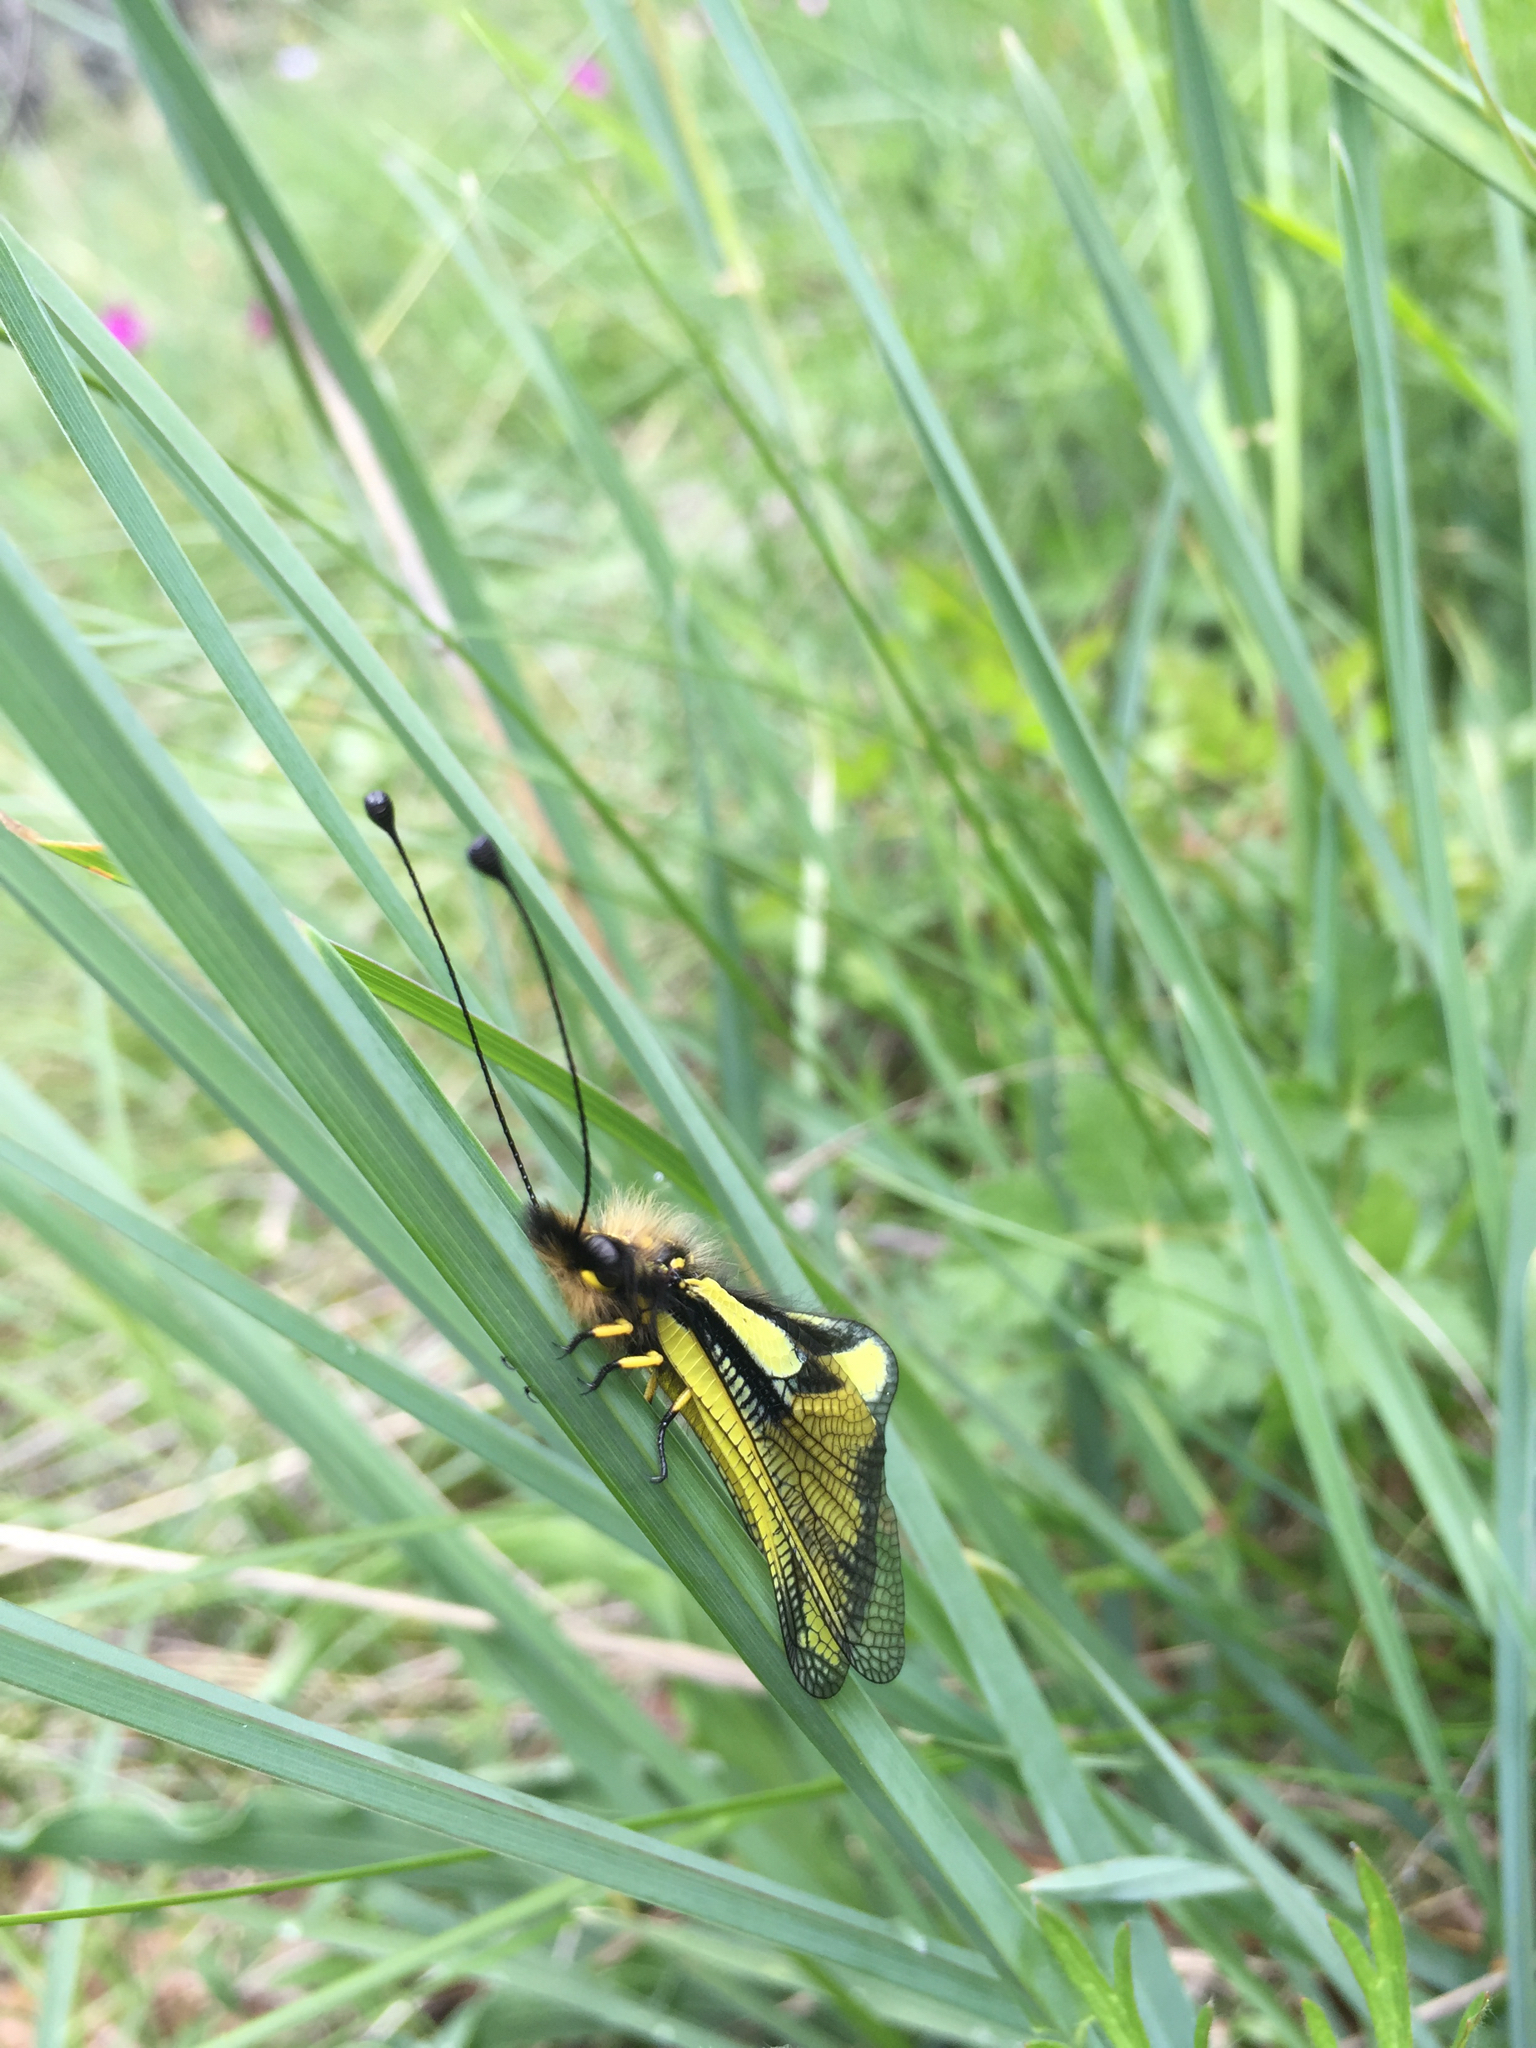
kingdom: Animalia
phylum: Arthropoda
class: Insecta
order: Neuroptera
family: Ascalaphidae
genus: Libelloides
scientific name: Libelloides coccajus
